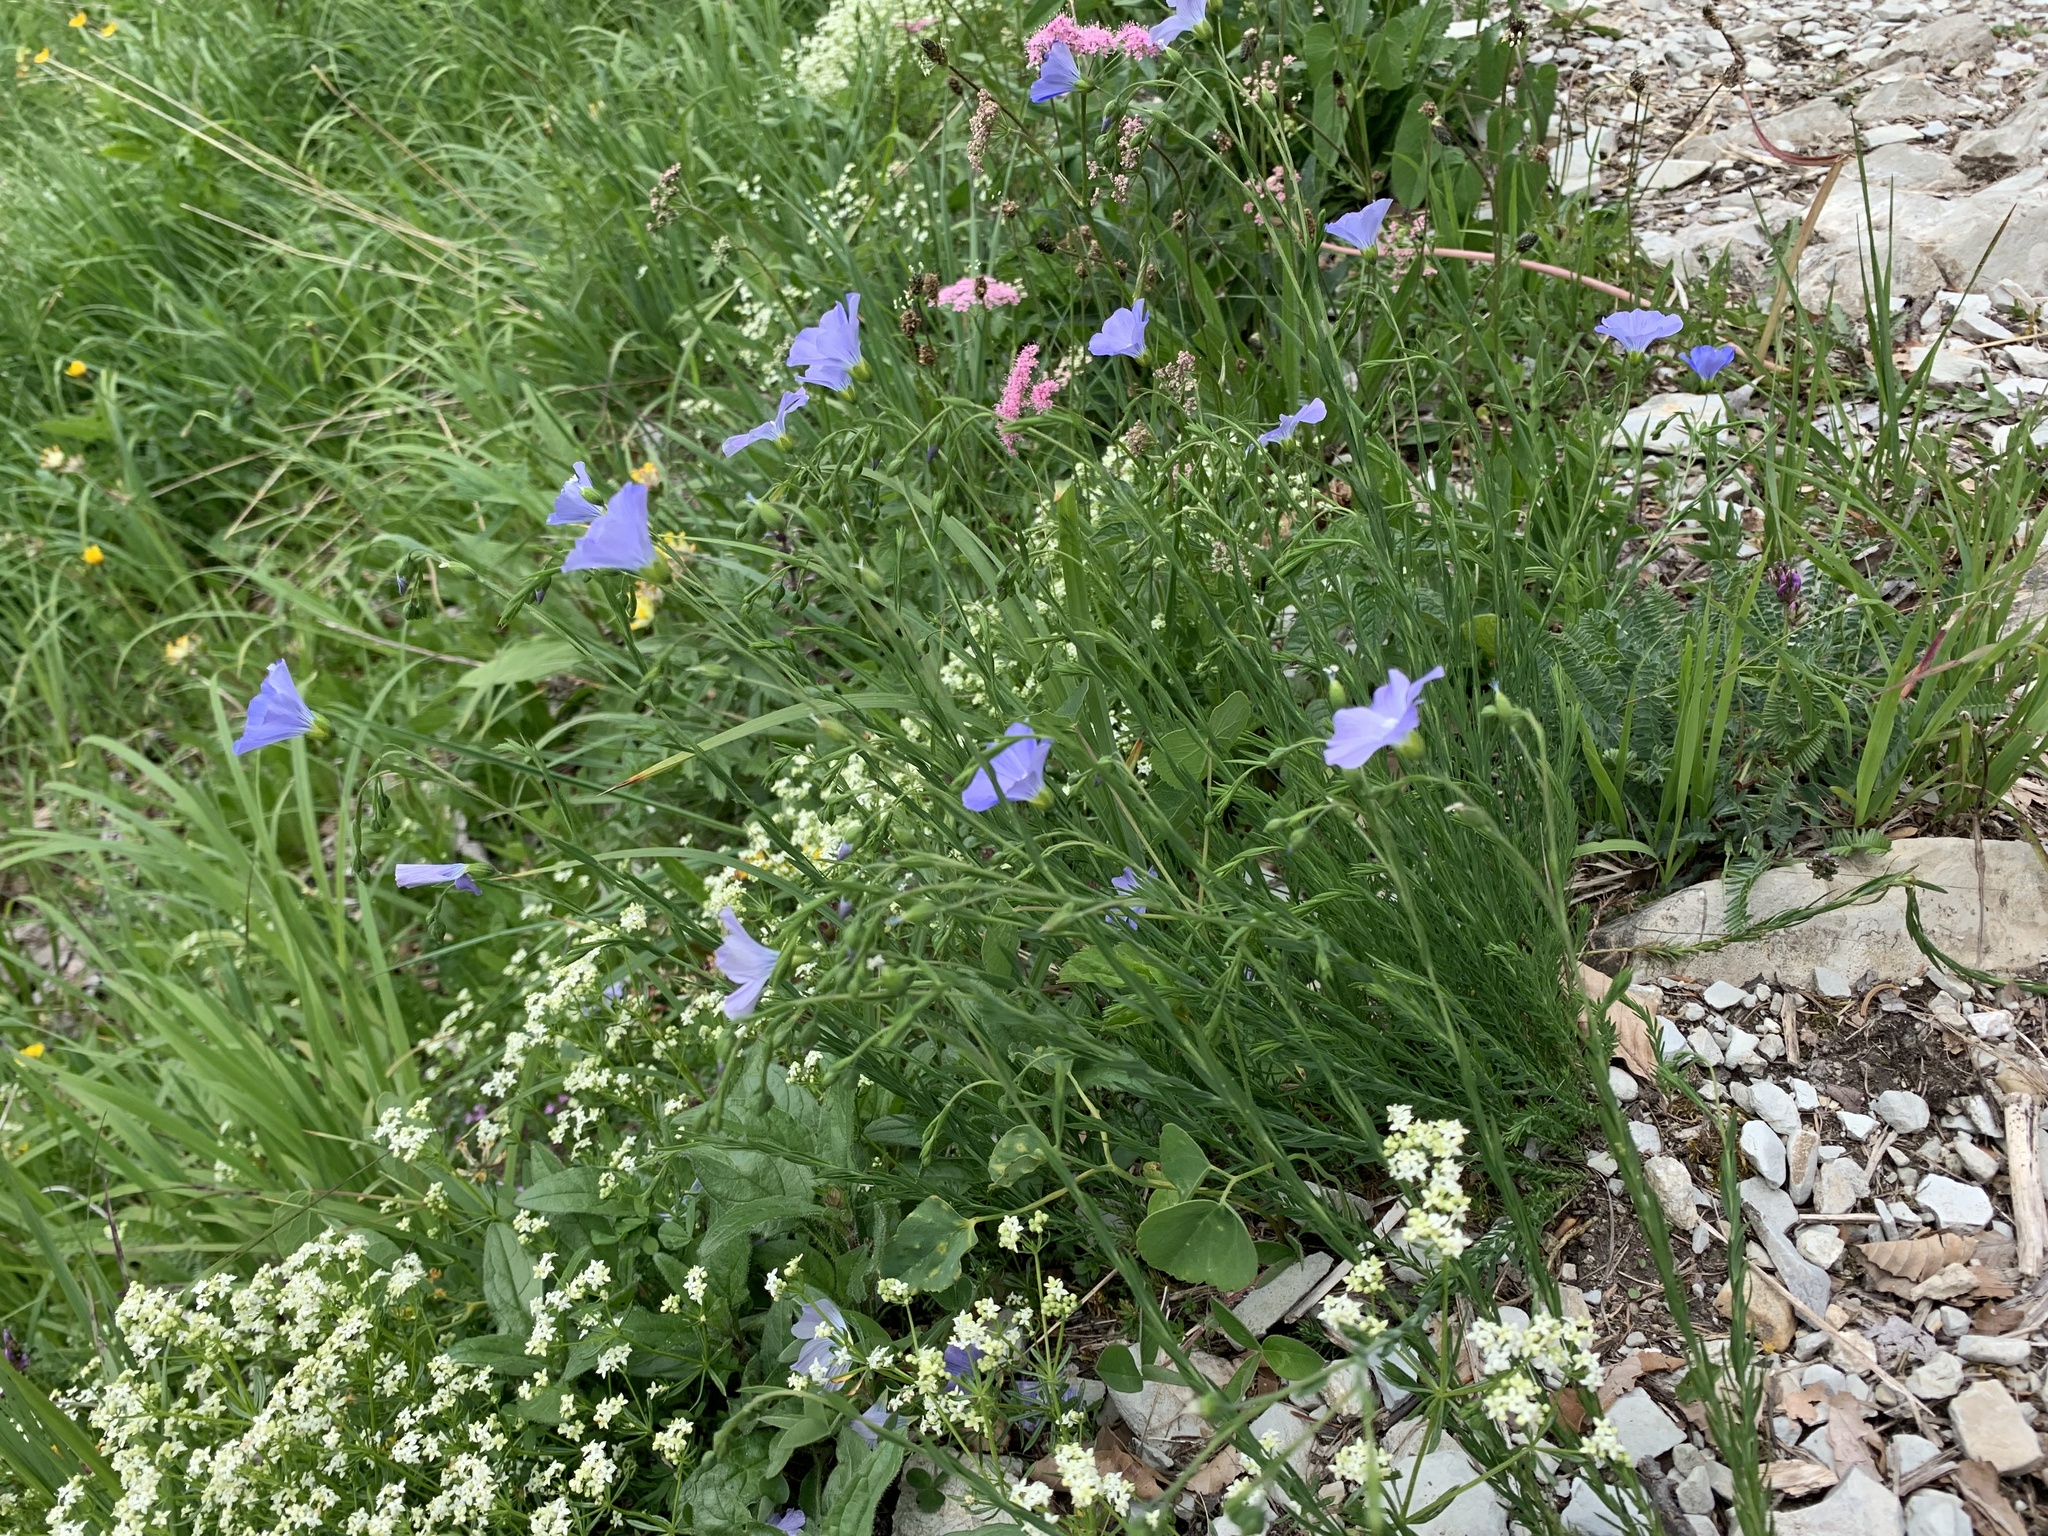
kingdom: Plantae
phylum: Tracheophyta
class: Magnoliopsida
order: Malpighiales
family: Linaceae
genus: Linum
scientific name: Linum alpinum
